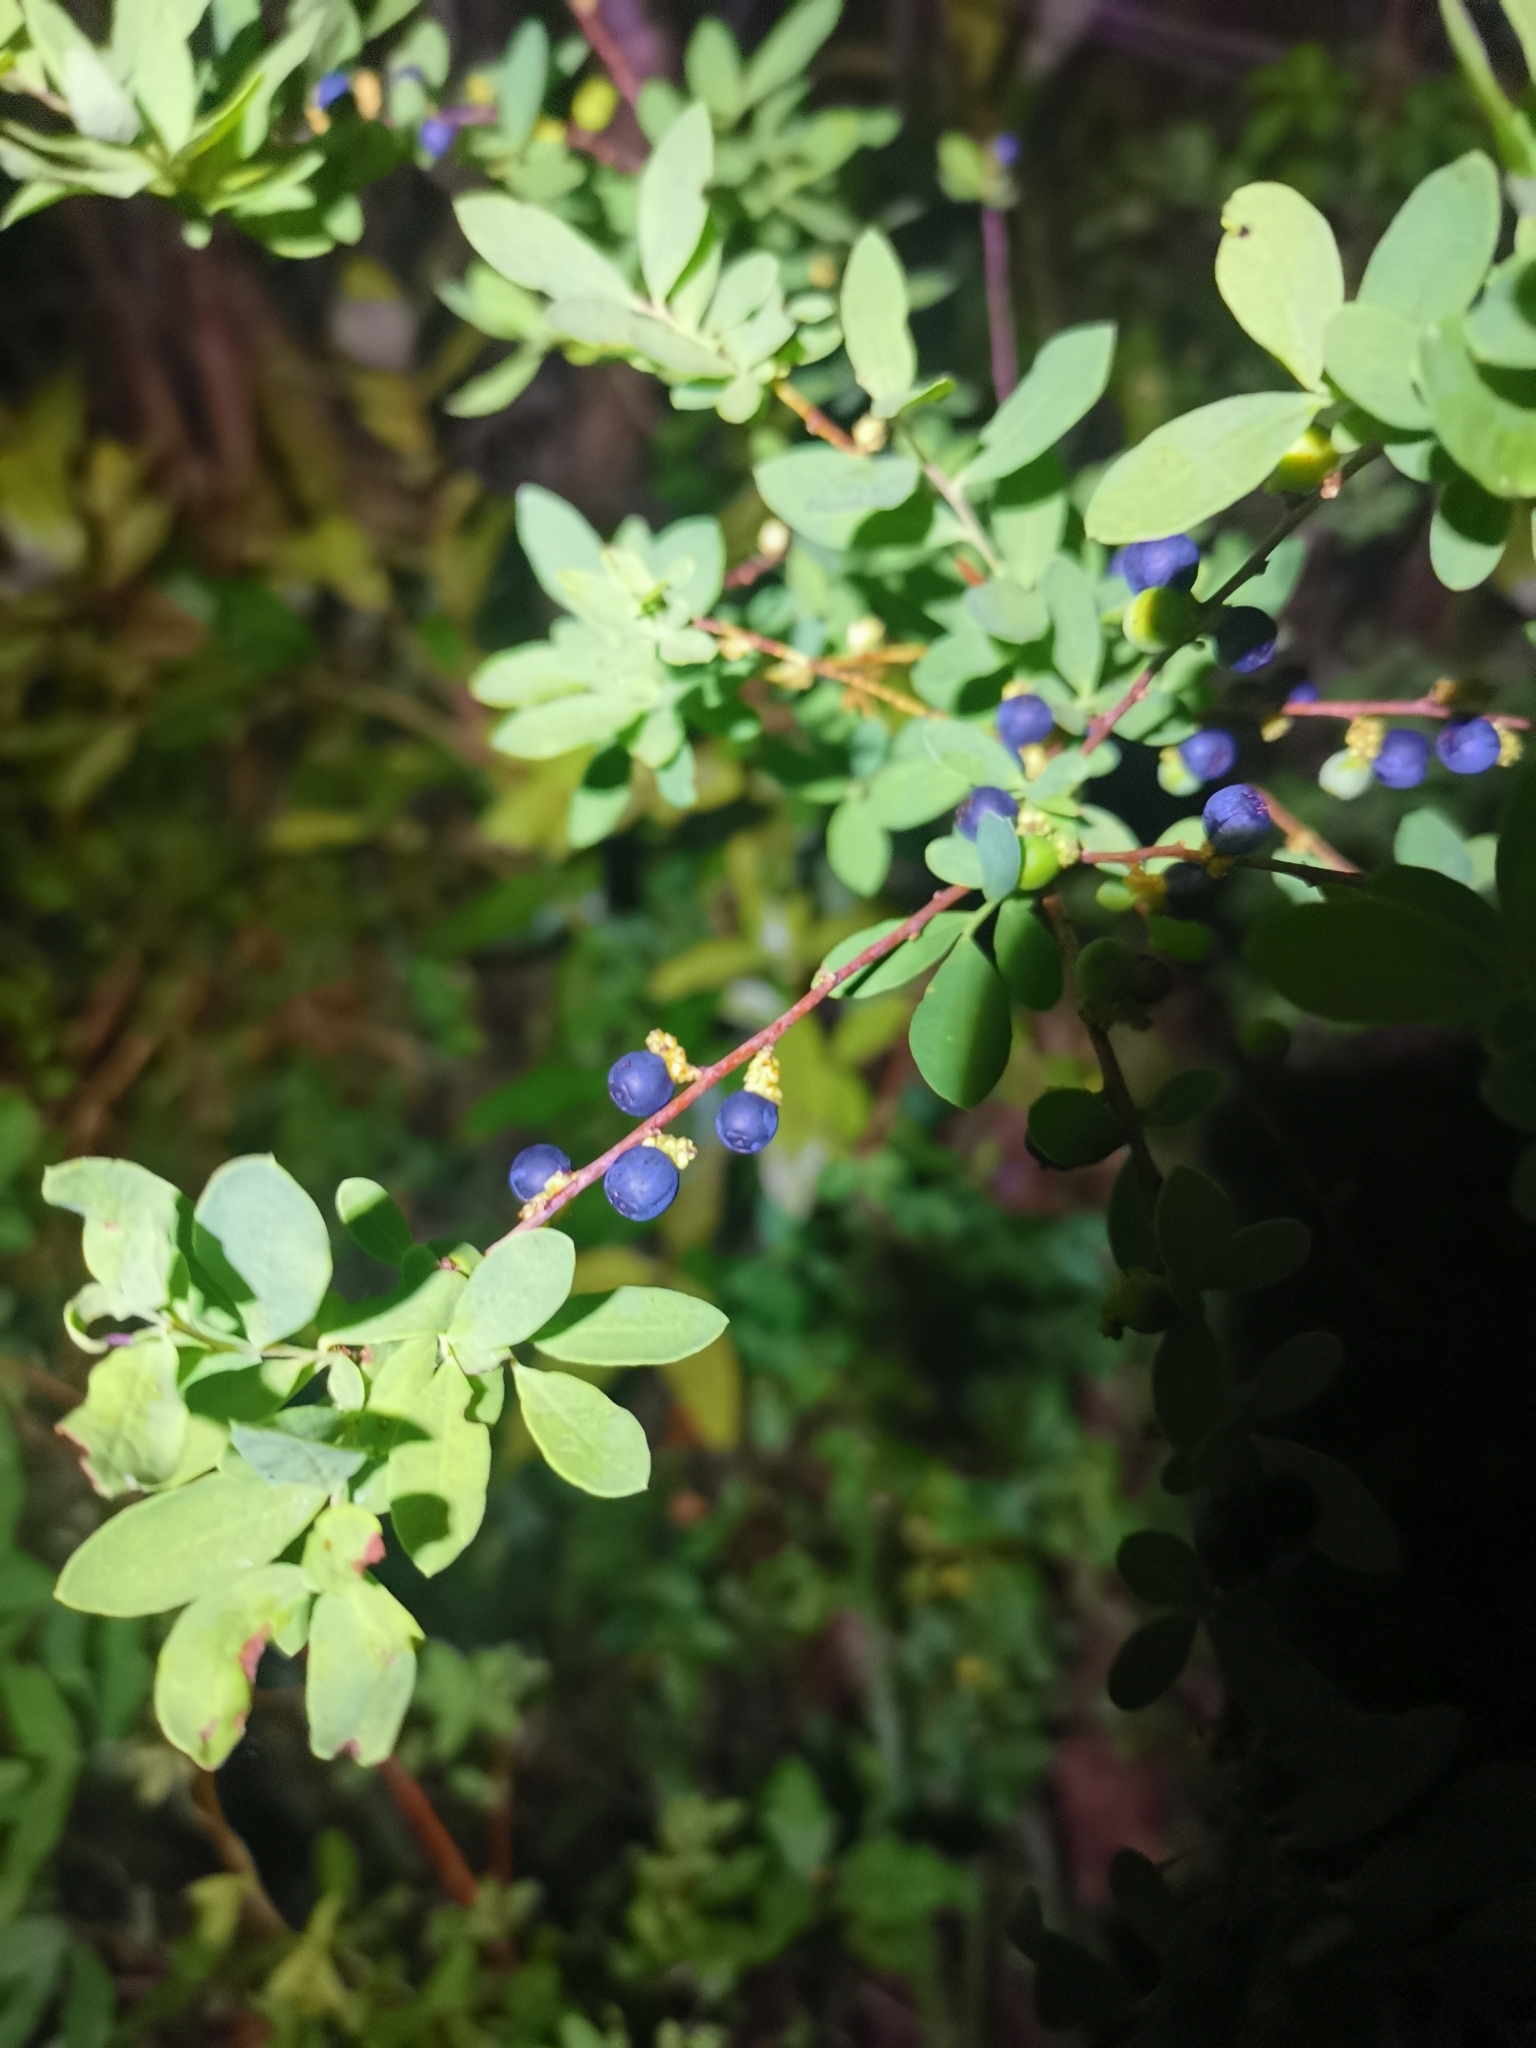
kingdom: Plantae
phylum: Tracheophyta
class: Magnoliopsida
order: Santalales
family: Santalaceae
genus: Myoschilos
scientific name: Myoschilos oblongum
